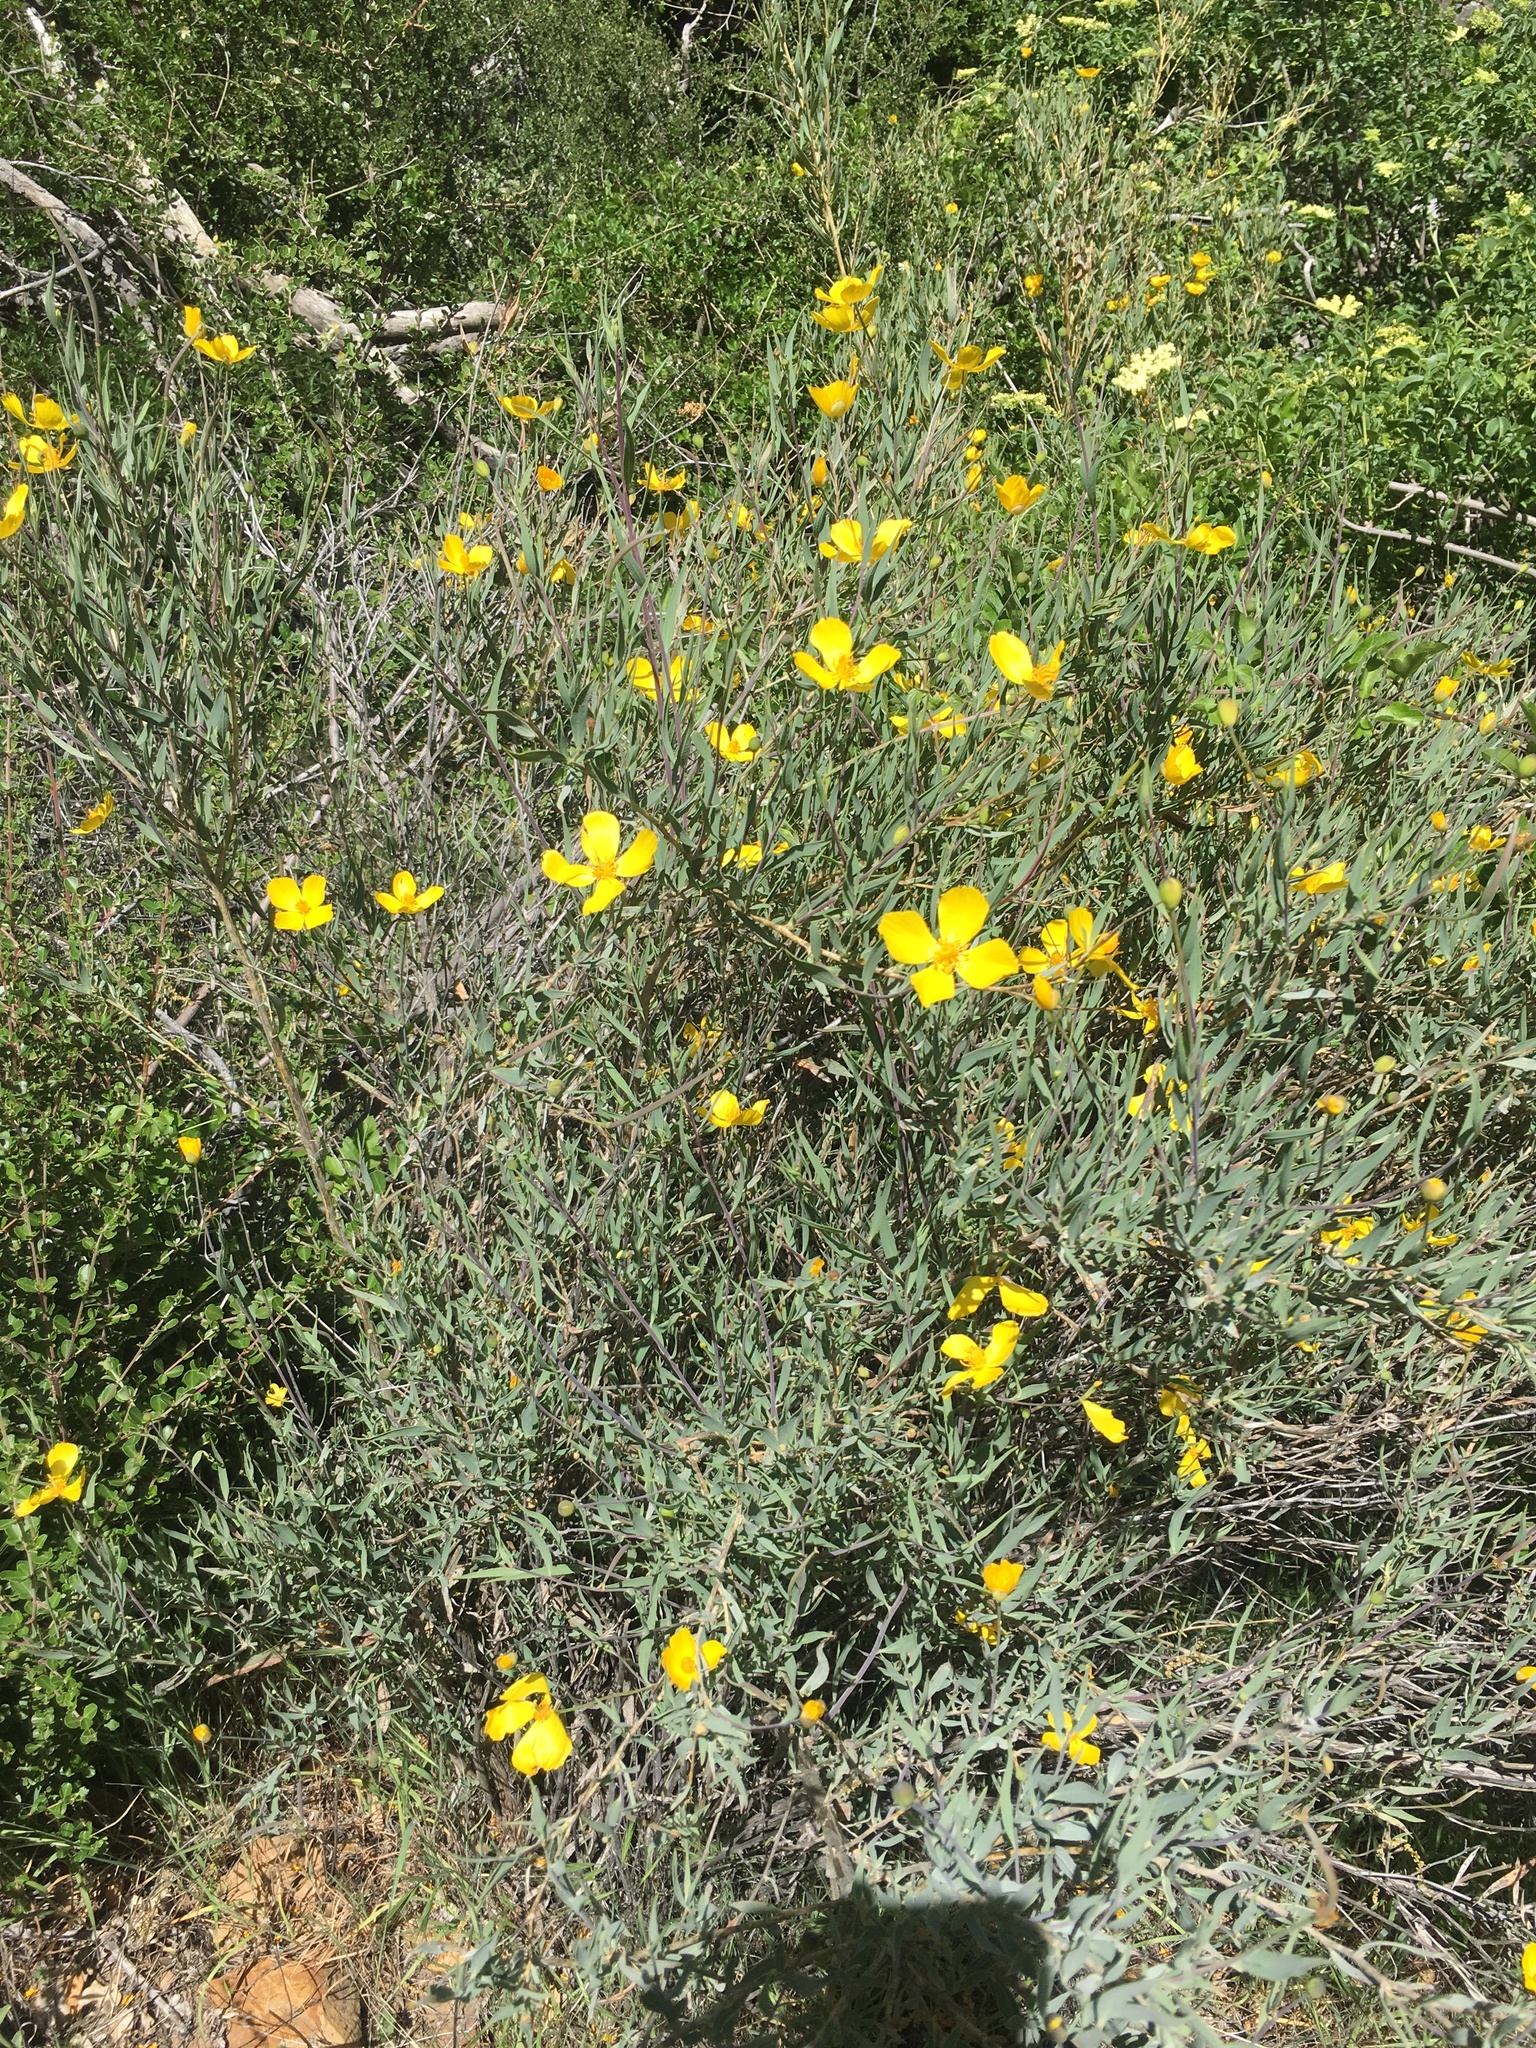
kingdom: Plantae
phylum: Tracheophyta
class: Magnoliopsida
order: Ranunculales
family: Papaveraceae
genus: Dendromecon
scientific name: Dendromecon rigida
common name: Tree poppy
